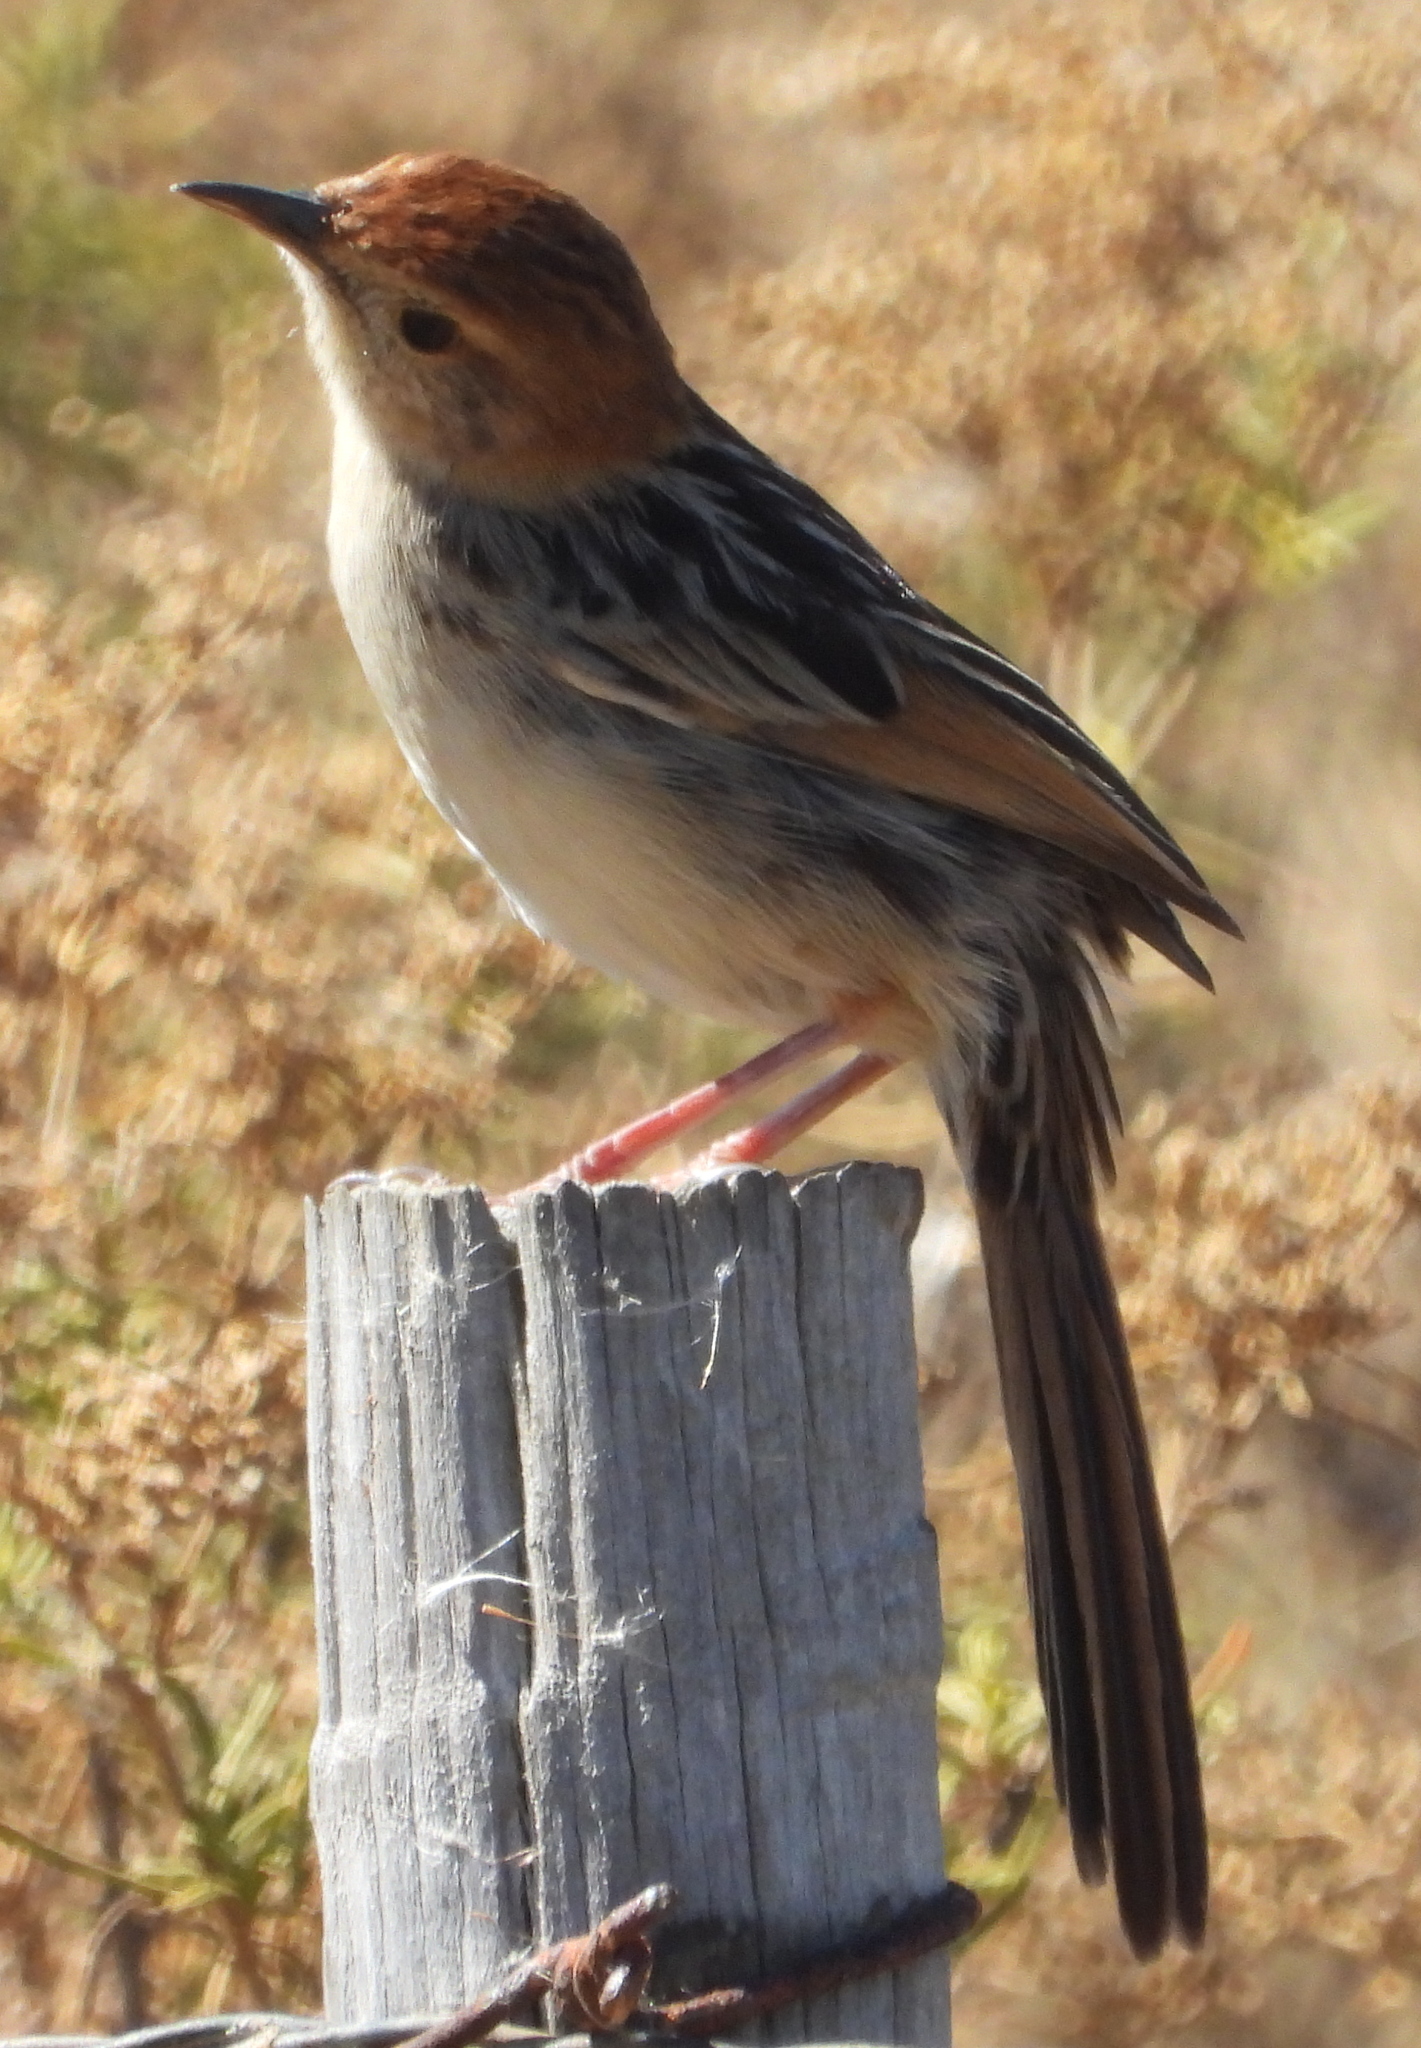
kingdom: Animalia
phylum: Chordata
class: Aves
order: Passeriformes
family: Cisticolidae
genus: Cisticola
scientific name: Cisticola tinniens
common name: Levaillant's cisticola
